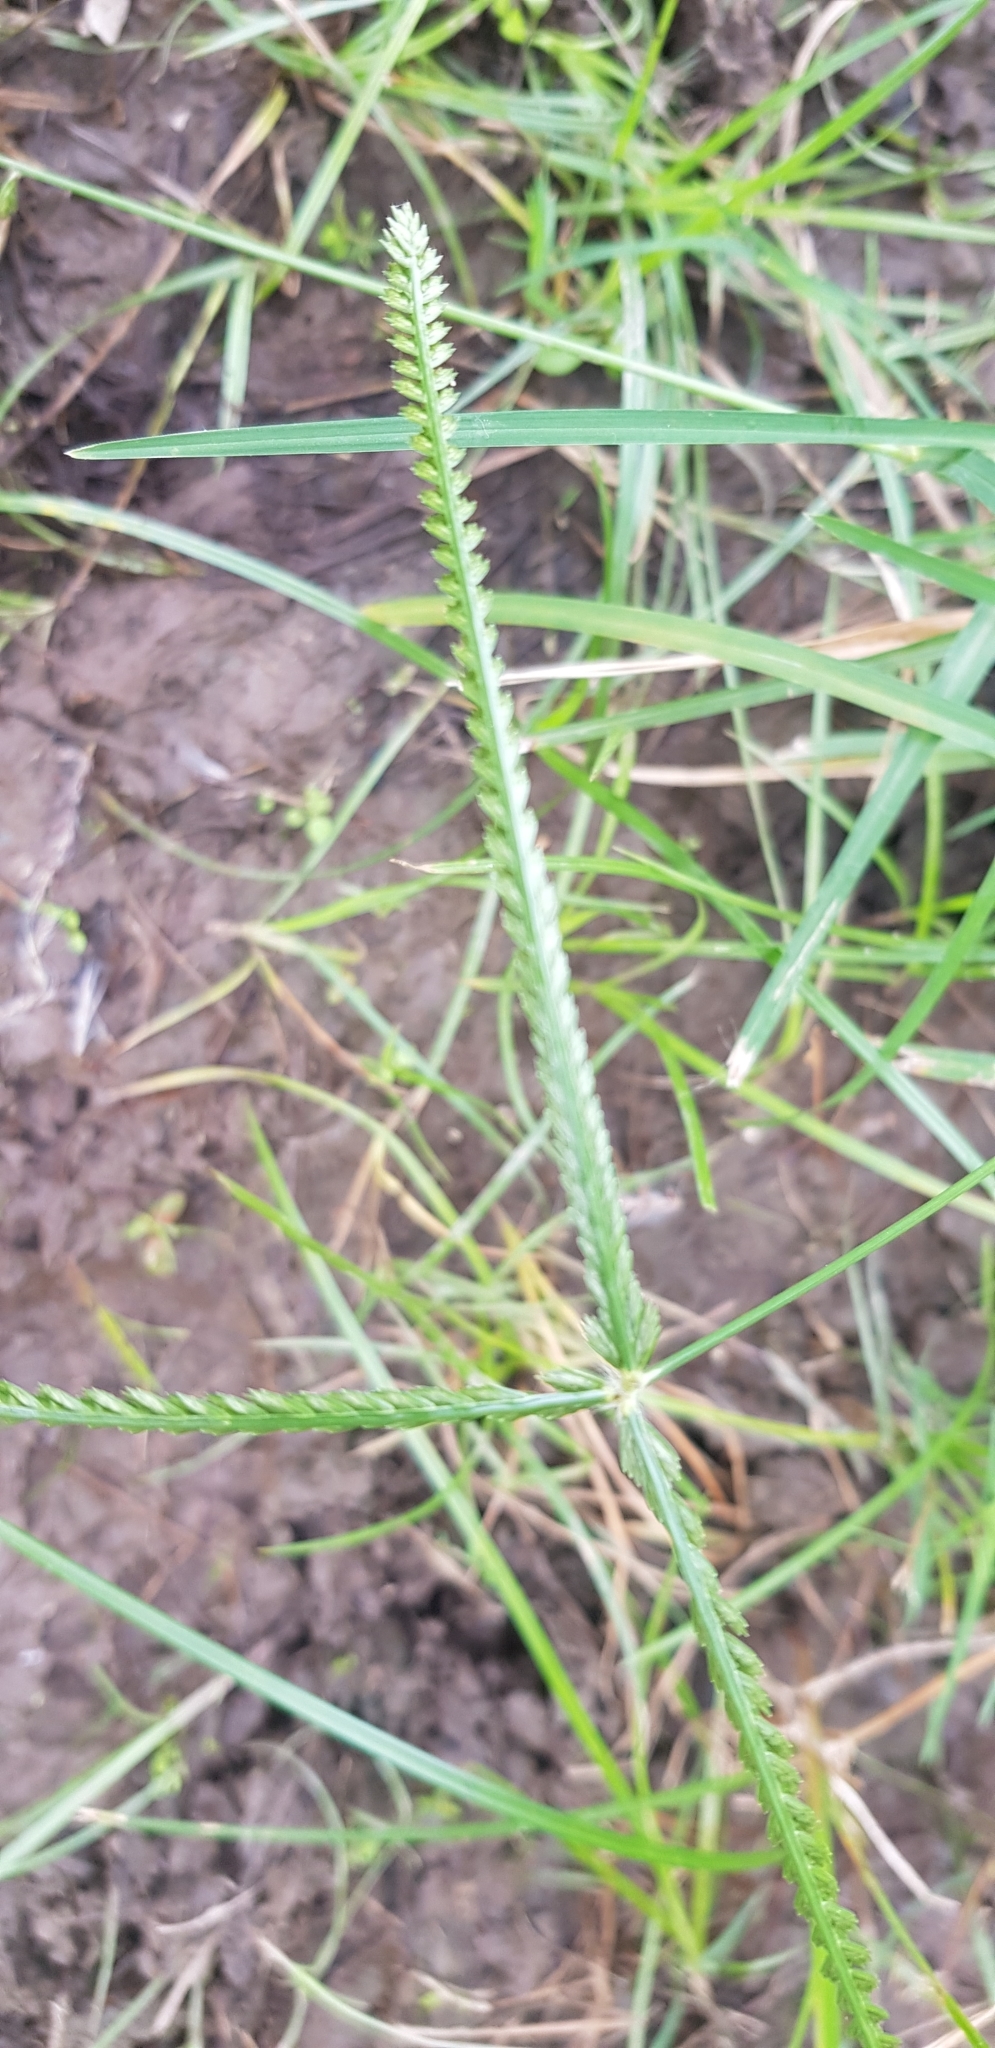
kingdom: Plantae
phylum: Tracheophyta
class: Liliopsida
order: Poales
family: Poaceae
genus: Eleusine
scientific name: Eleusine indica
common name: Yard-grass
